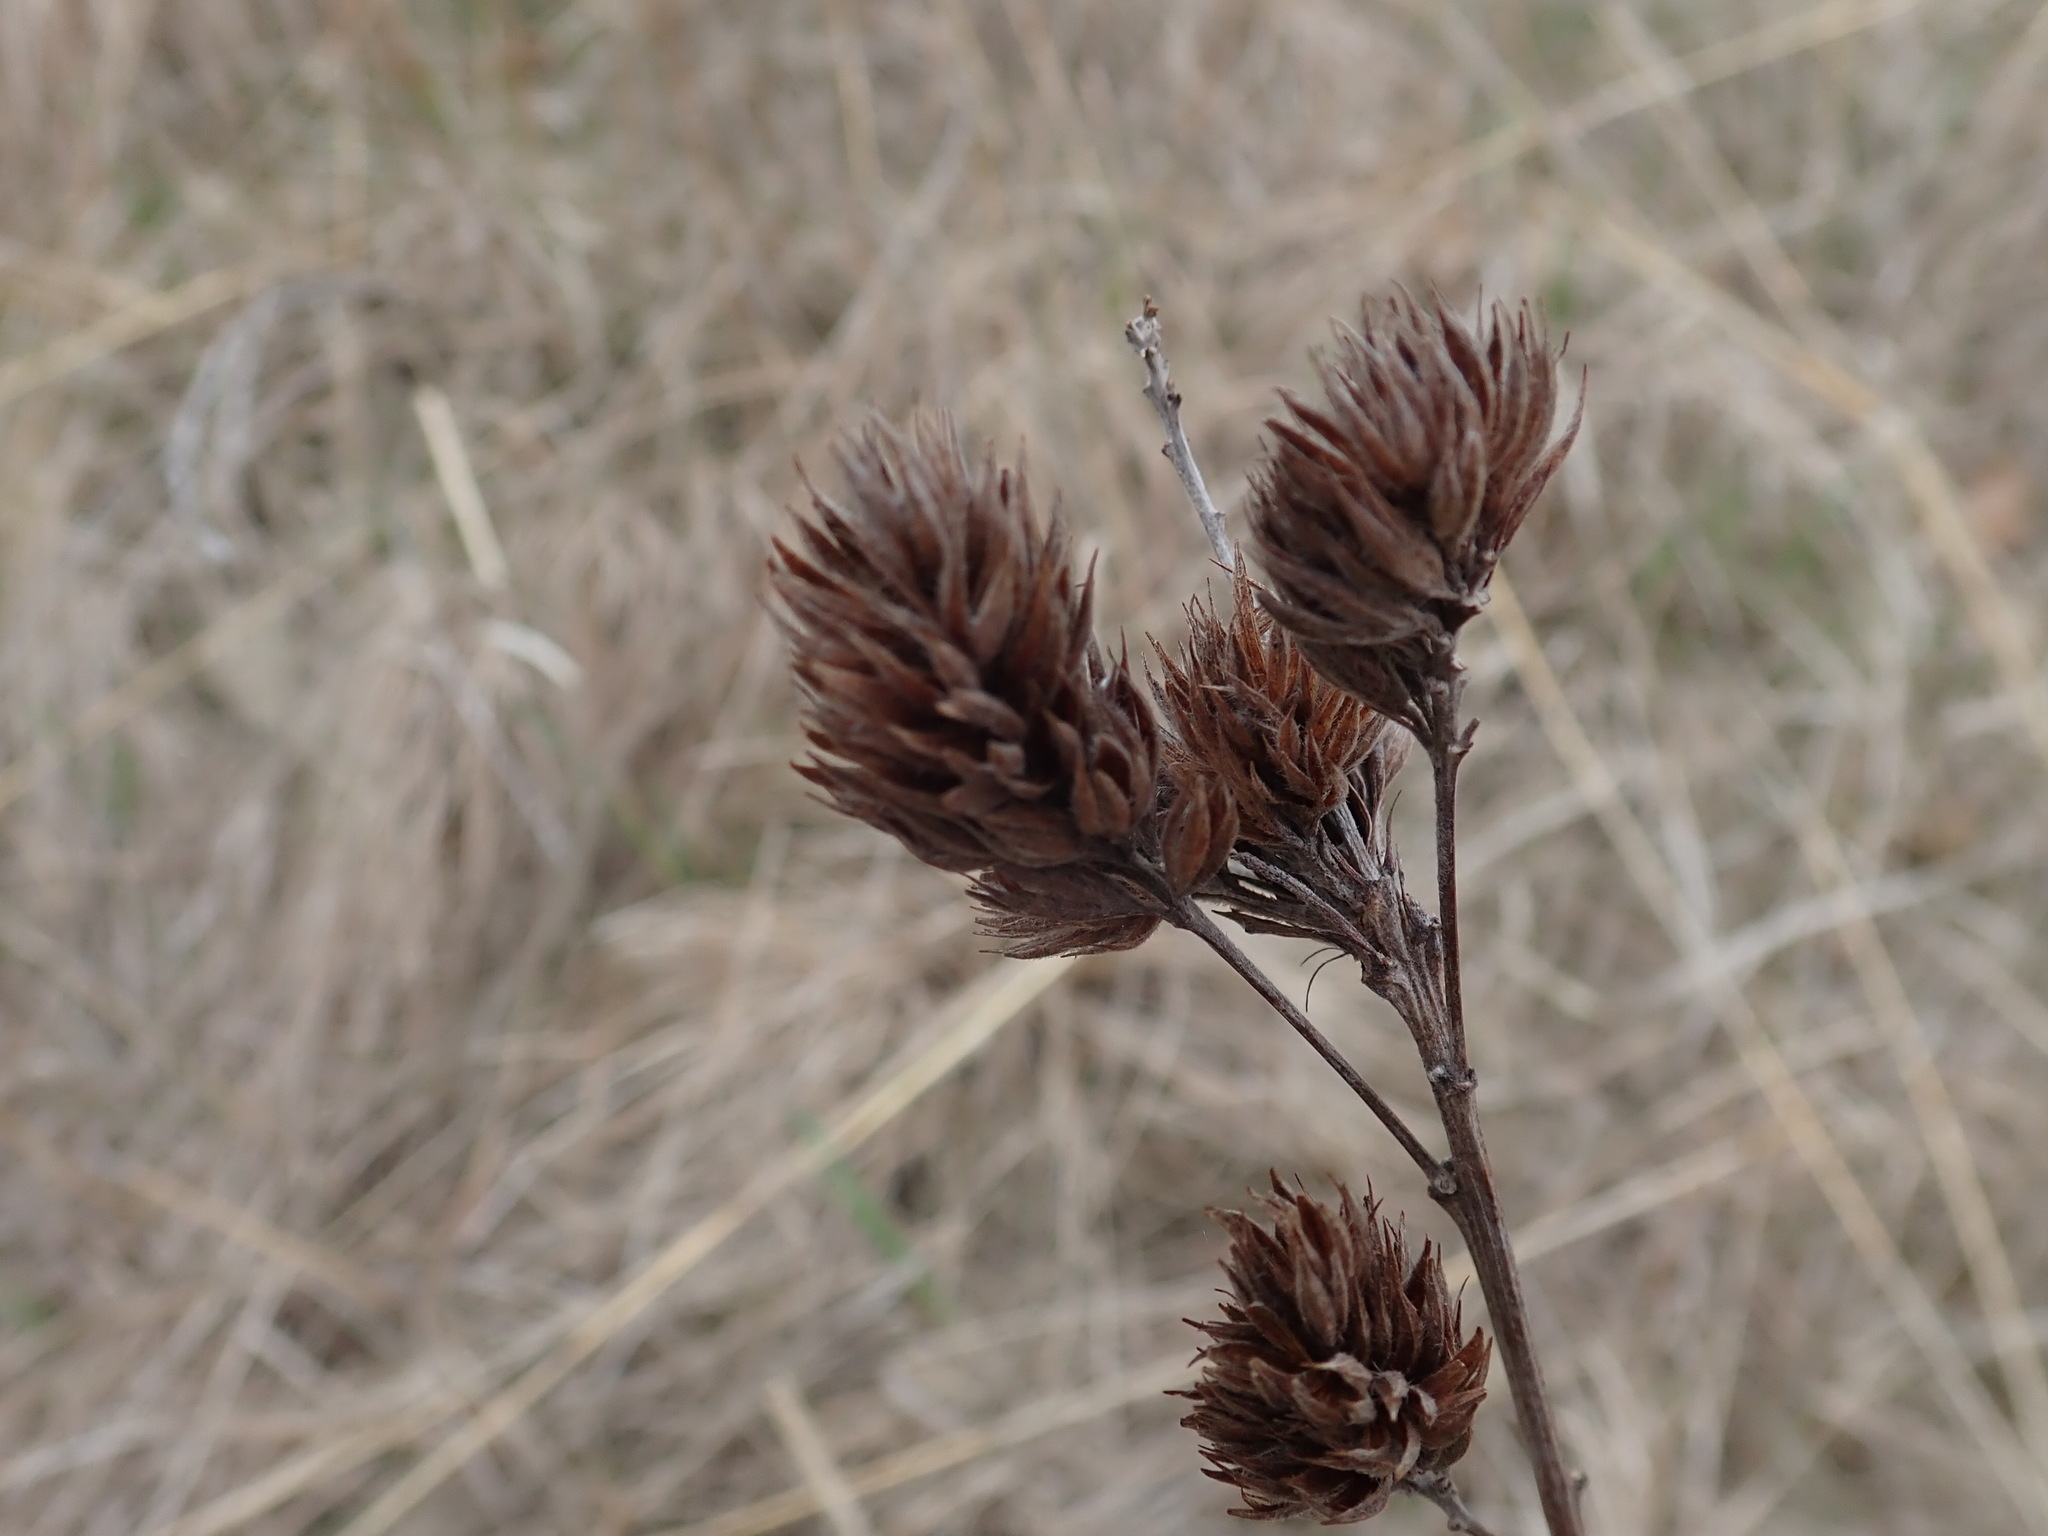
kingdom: Plantae
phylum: Tracheophyta
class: Magnoliopsida
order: Fabales
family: Fabaceae
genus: Lespedeza
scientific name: Lespedeza capitata
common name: Dusty clover
